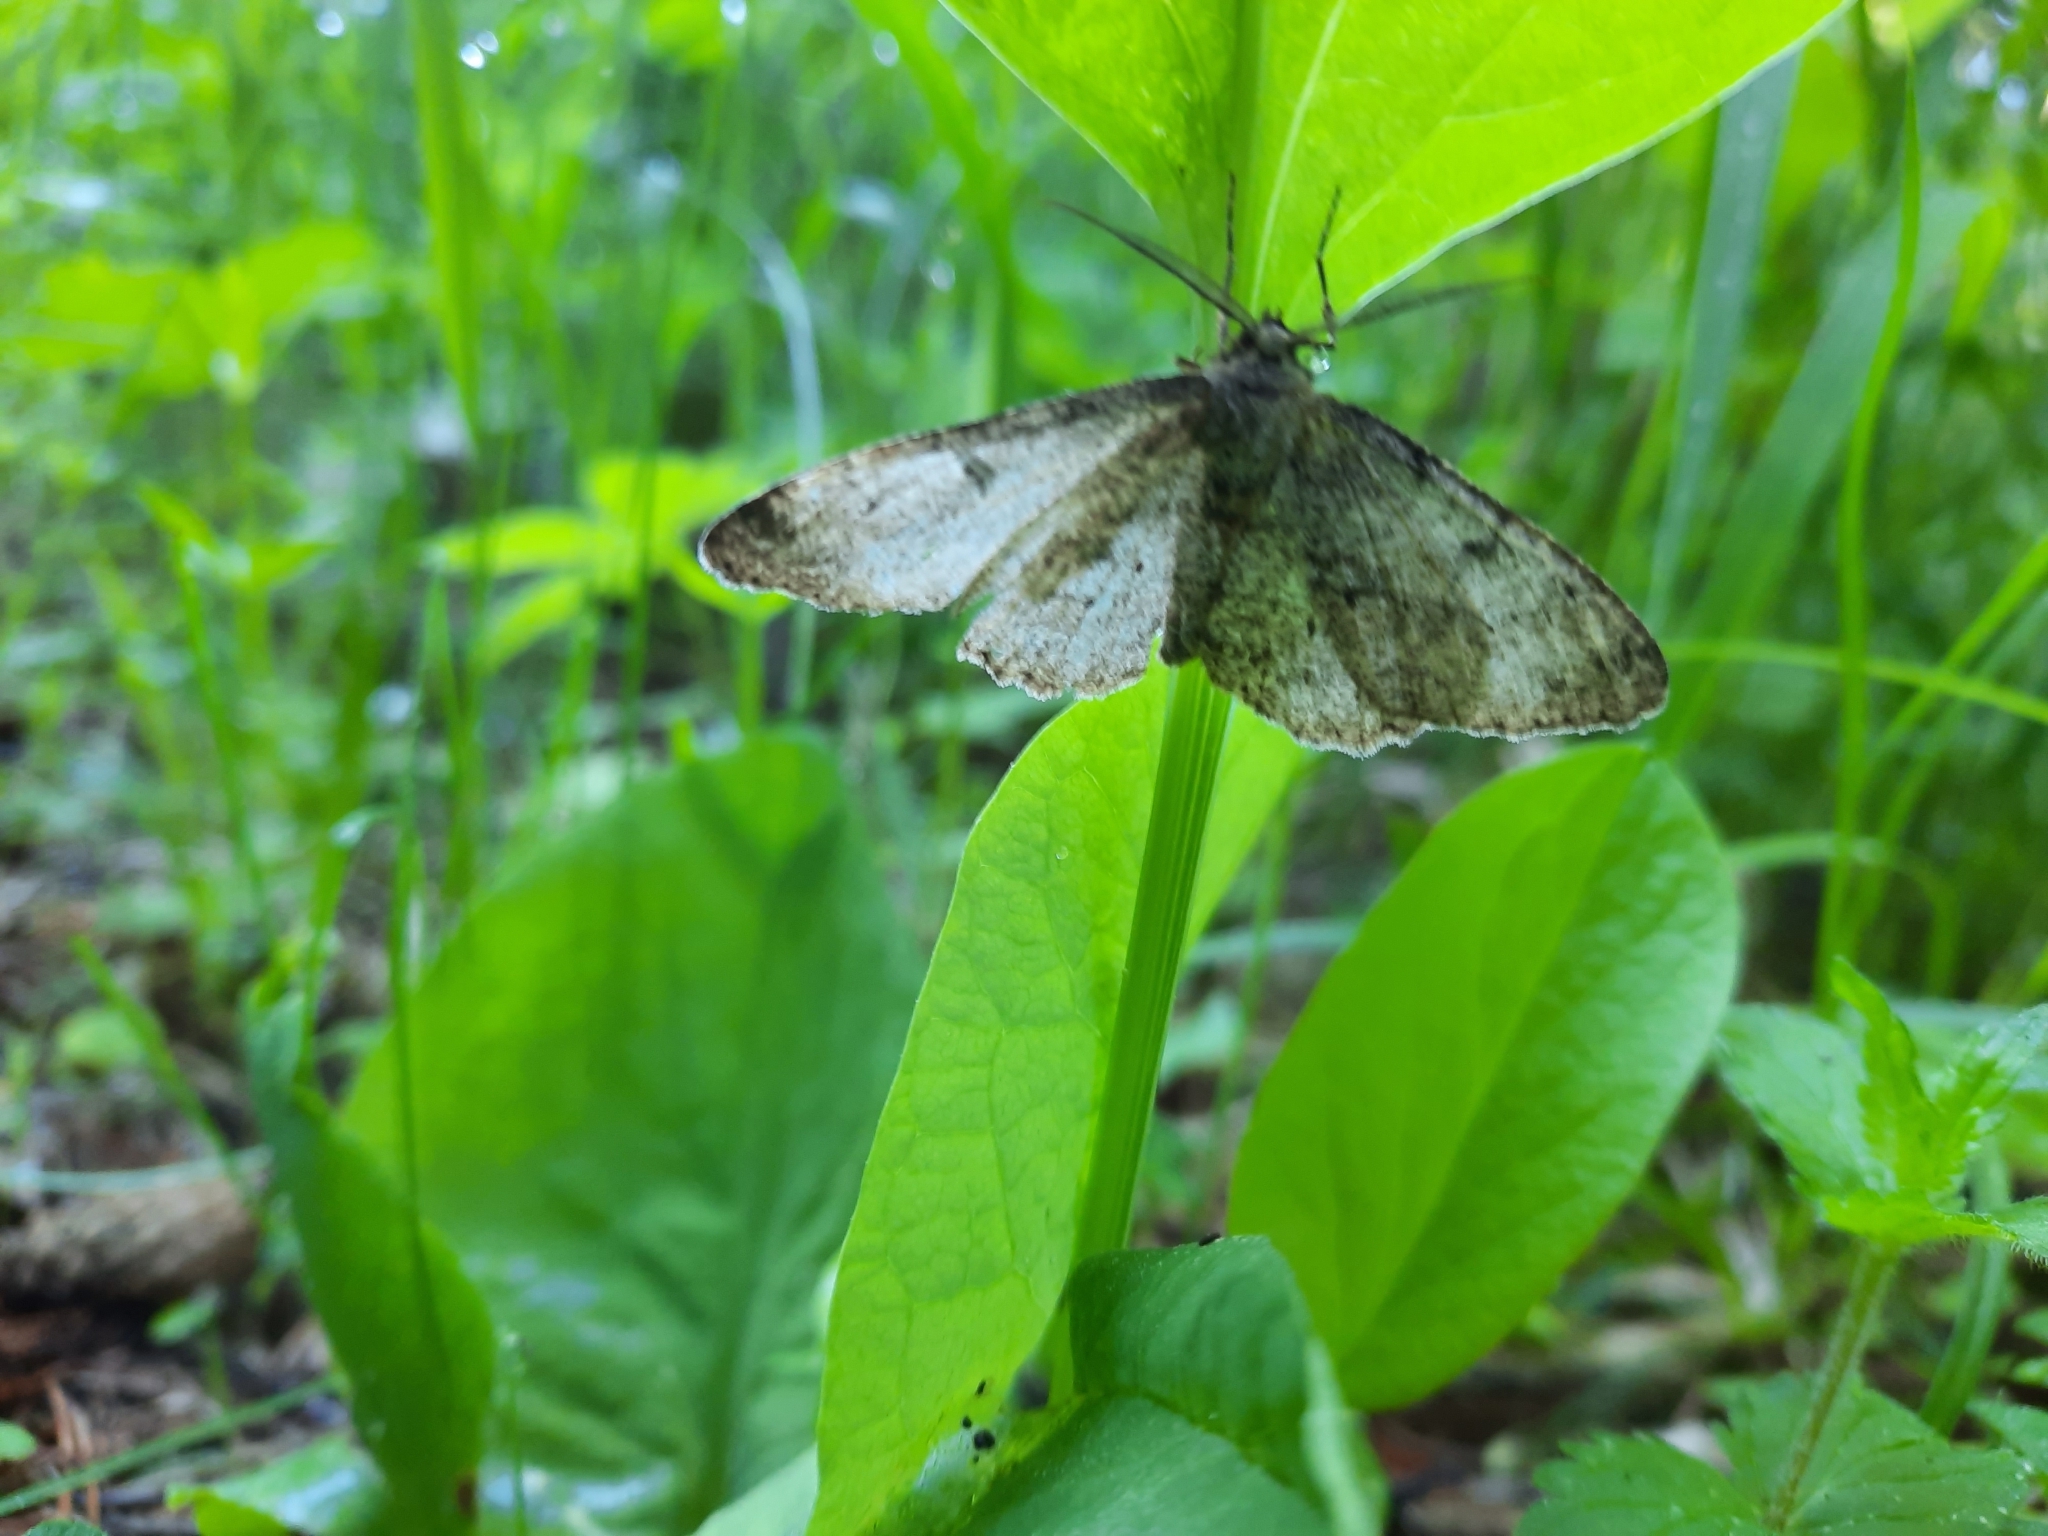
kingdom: Animalia
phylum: Arthropoda
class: Insecta
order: Lepidoptera
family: Geometridae
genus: Hypomecis
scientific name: Hypomecis punctinalis
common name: Pale oak beauty
